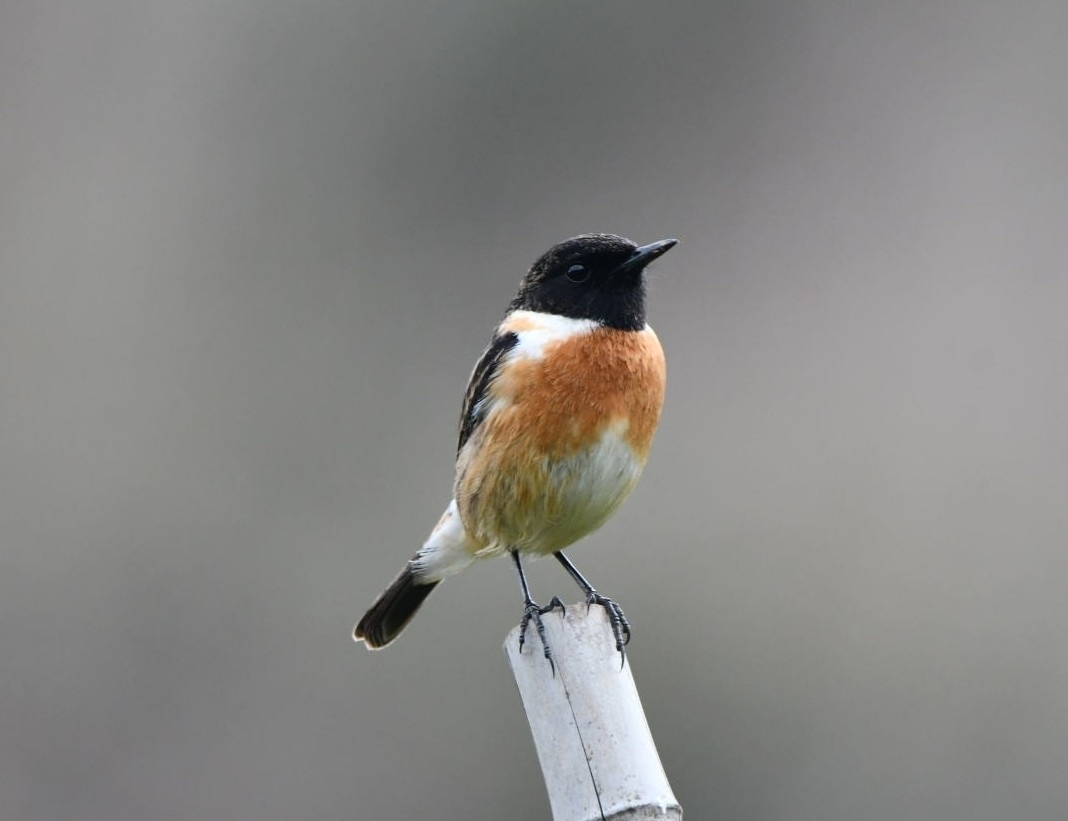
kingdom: Animalia
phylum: Chordata
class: Aves
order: Passeriformes
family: Muscicapidae
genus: Saxicola
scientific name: Saxicola rubicola
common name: European stonechat
